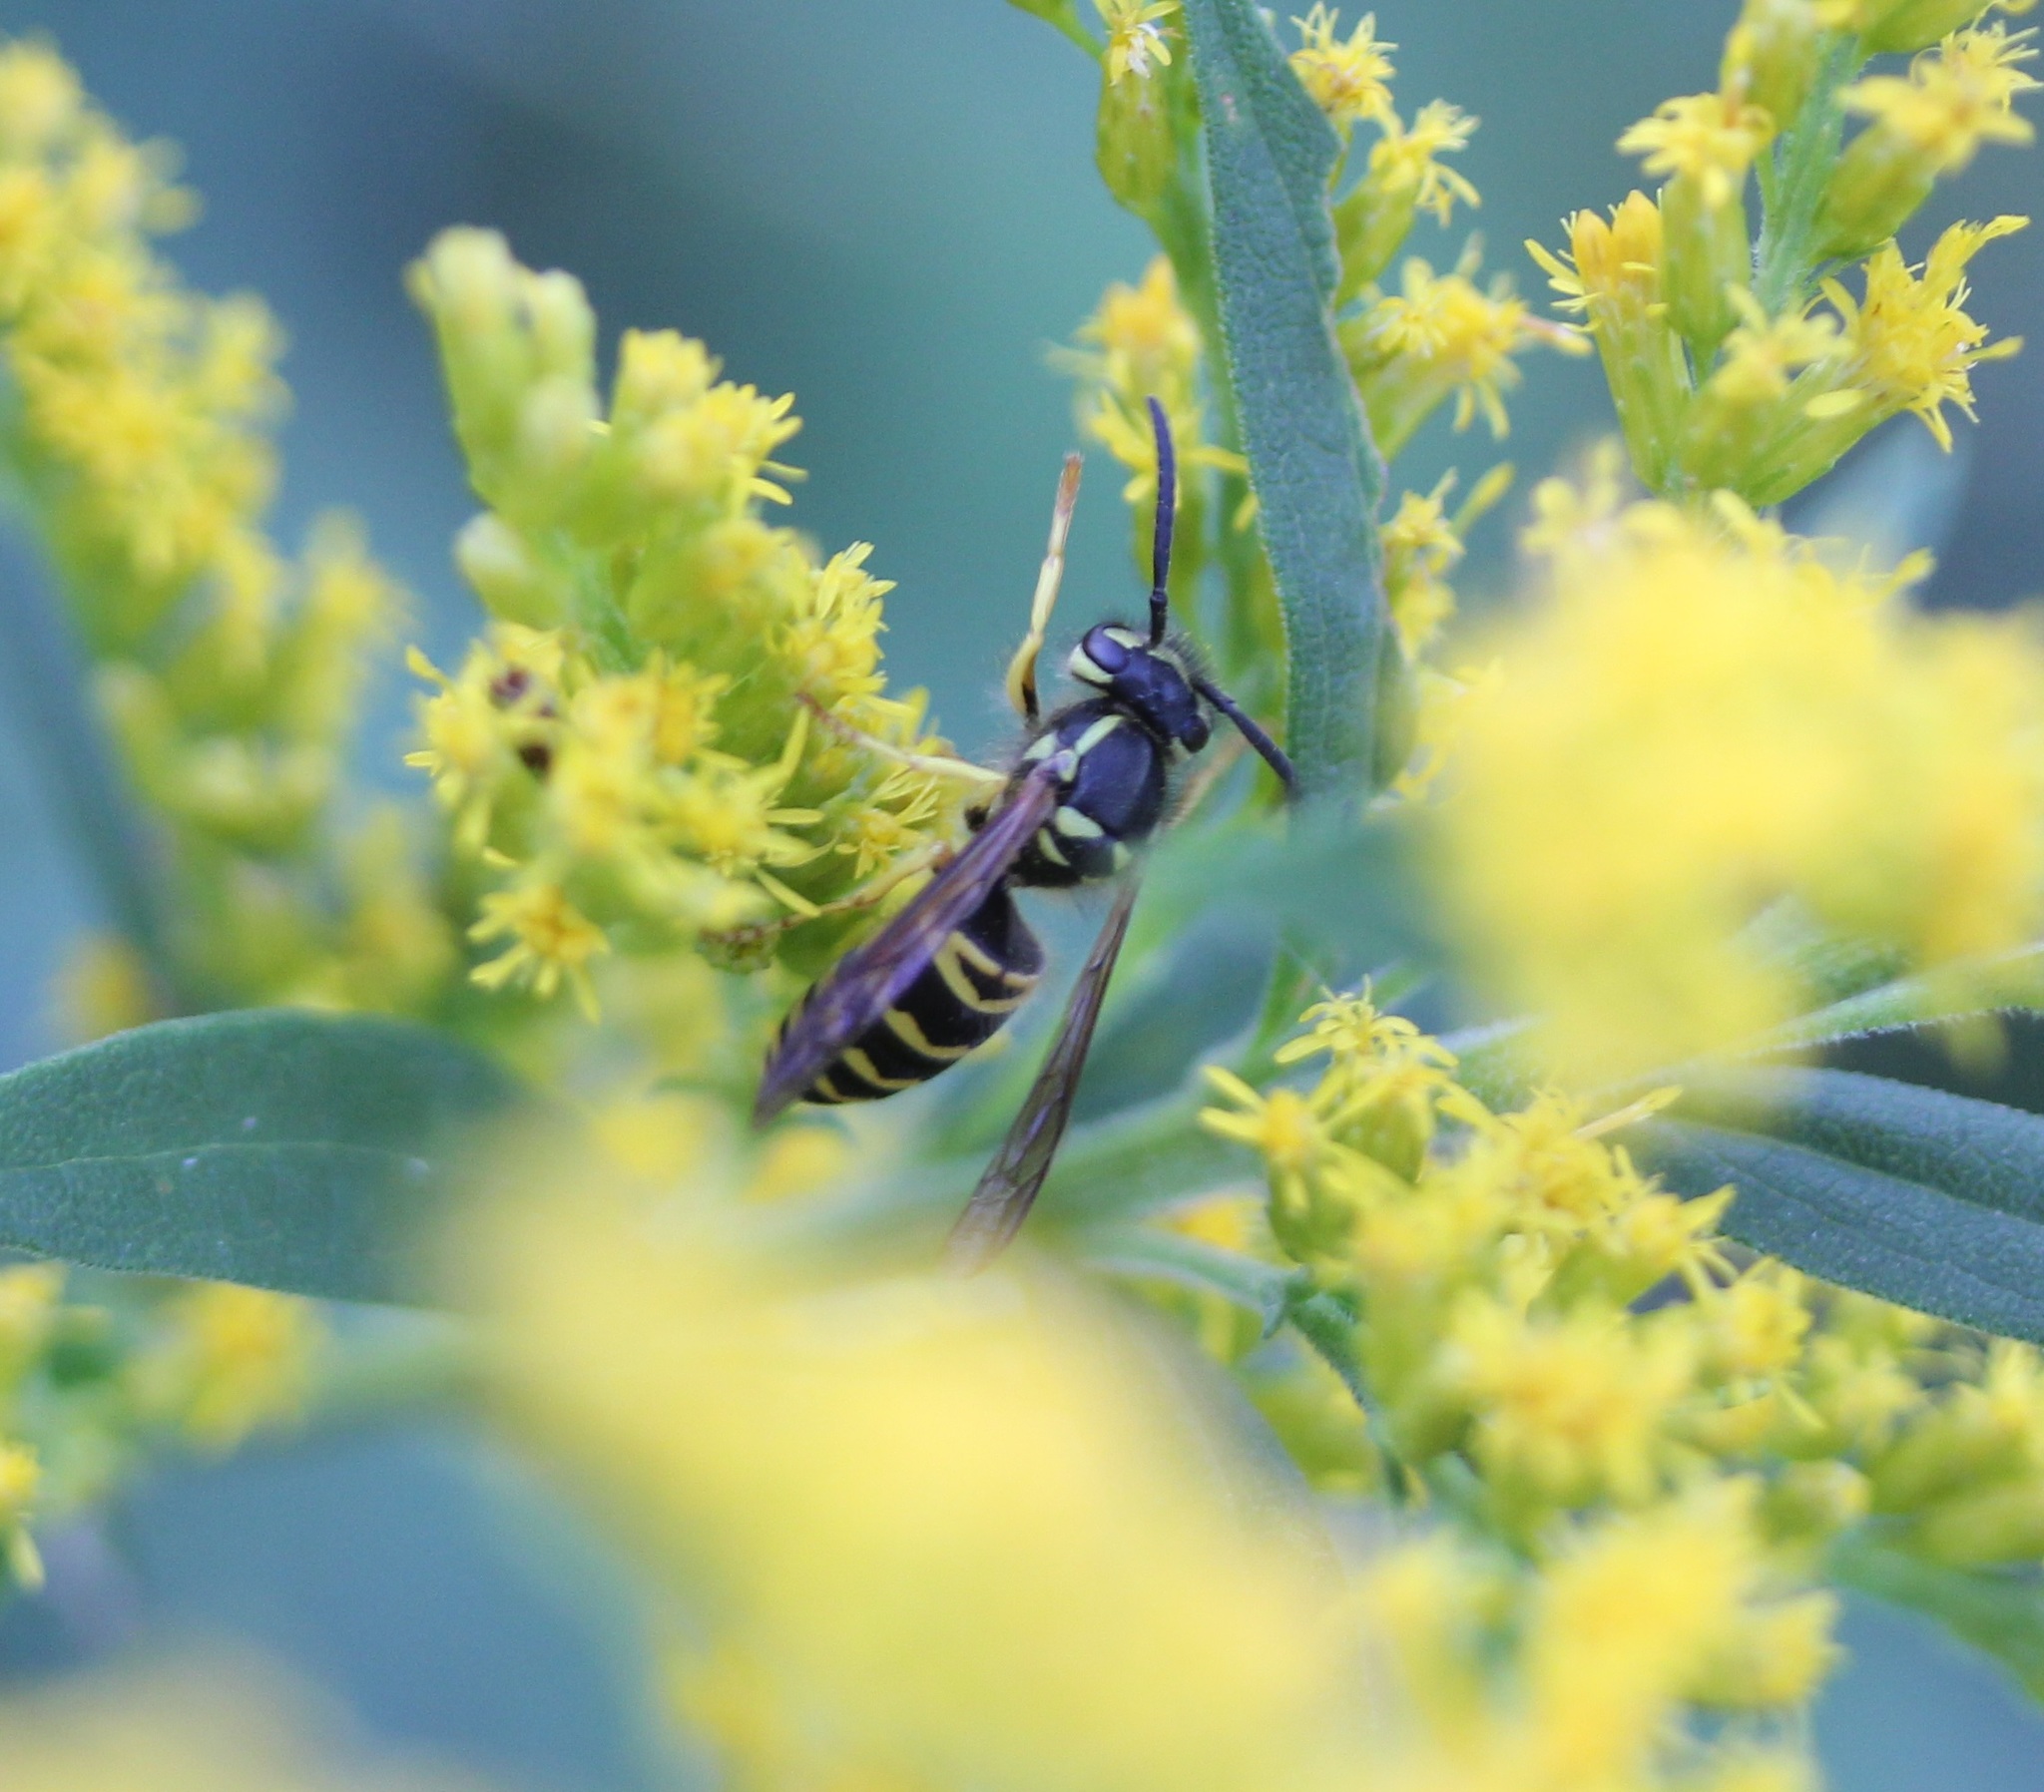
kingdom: Animalia
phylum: Arthropoda
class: Insecta
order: Hymenoptera
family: Vespidae
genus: Vespula
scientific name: Vespula maculifrons
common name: Eastern yellowjacket
